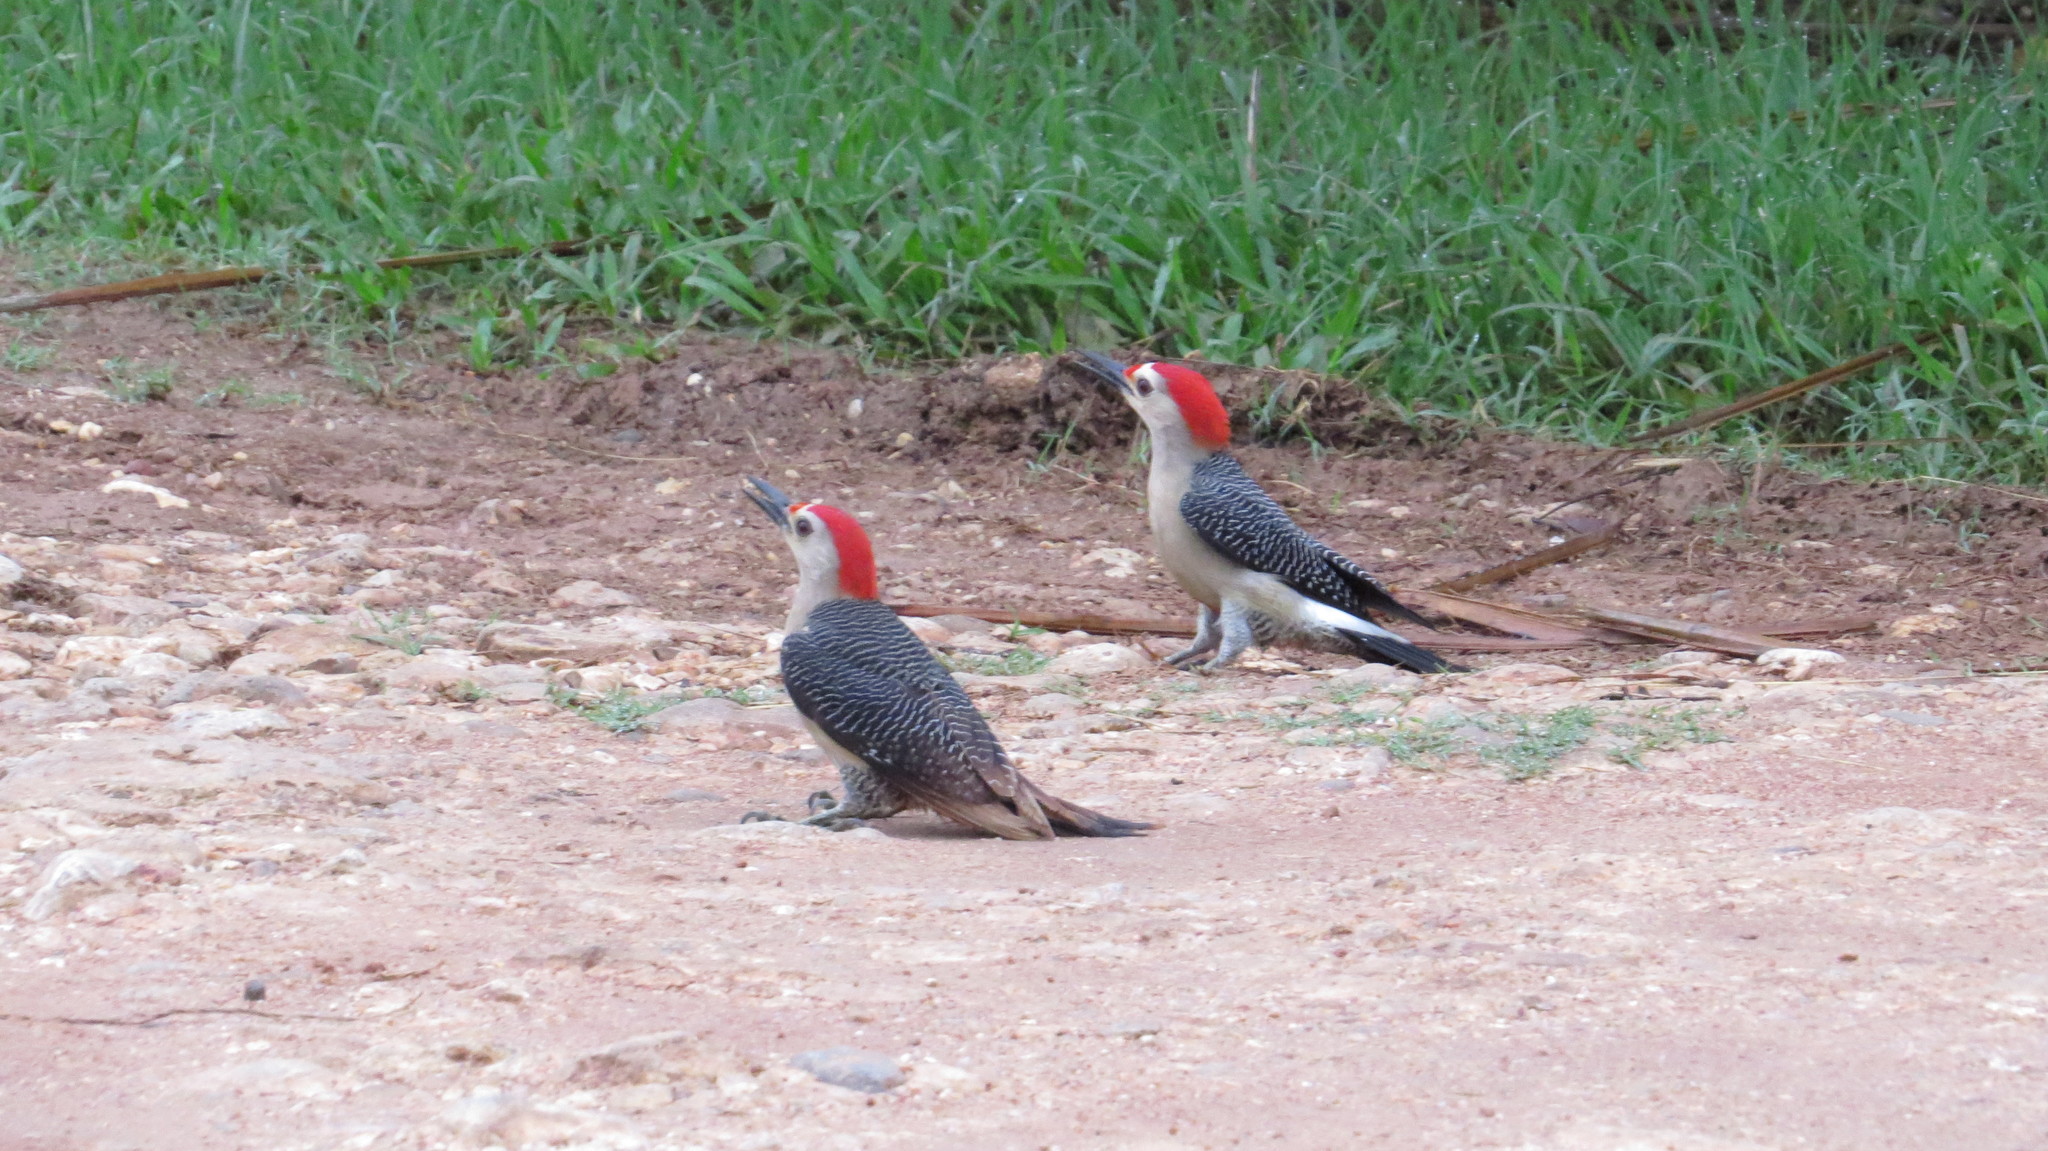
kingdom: Animalia
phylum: Chordata
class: Aves
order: Piciformes
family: Picidae
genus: Melanerpes
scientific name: Melanerpes aurifrons
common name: Golden-fronted woodpecker
